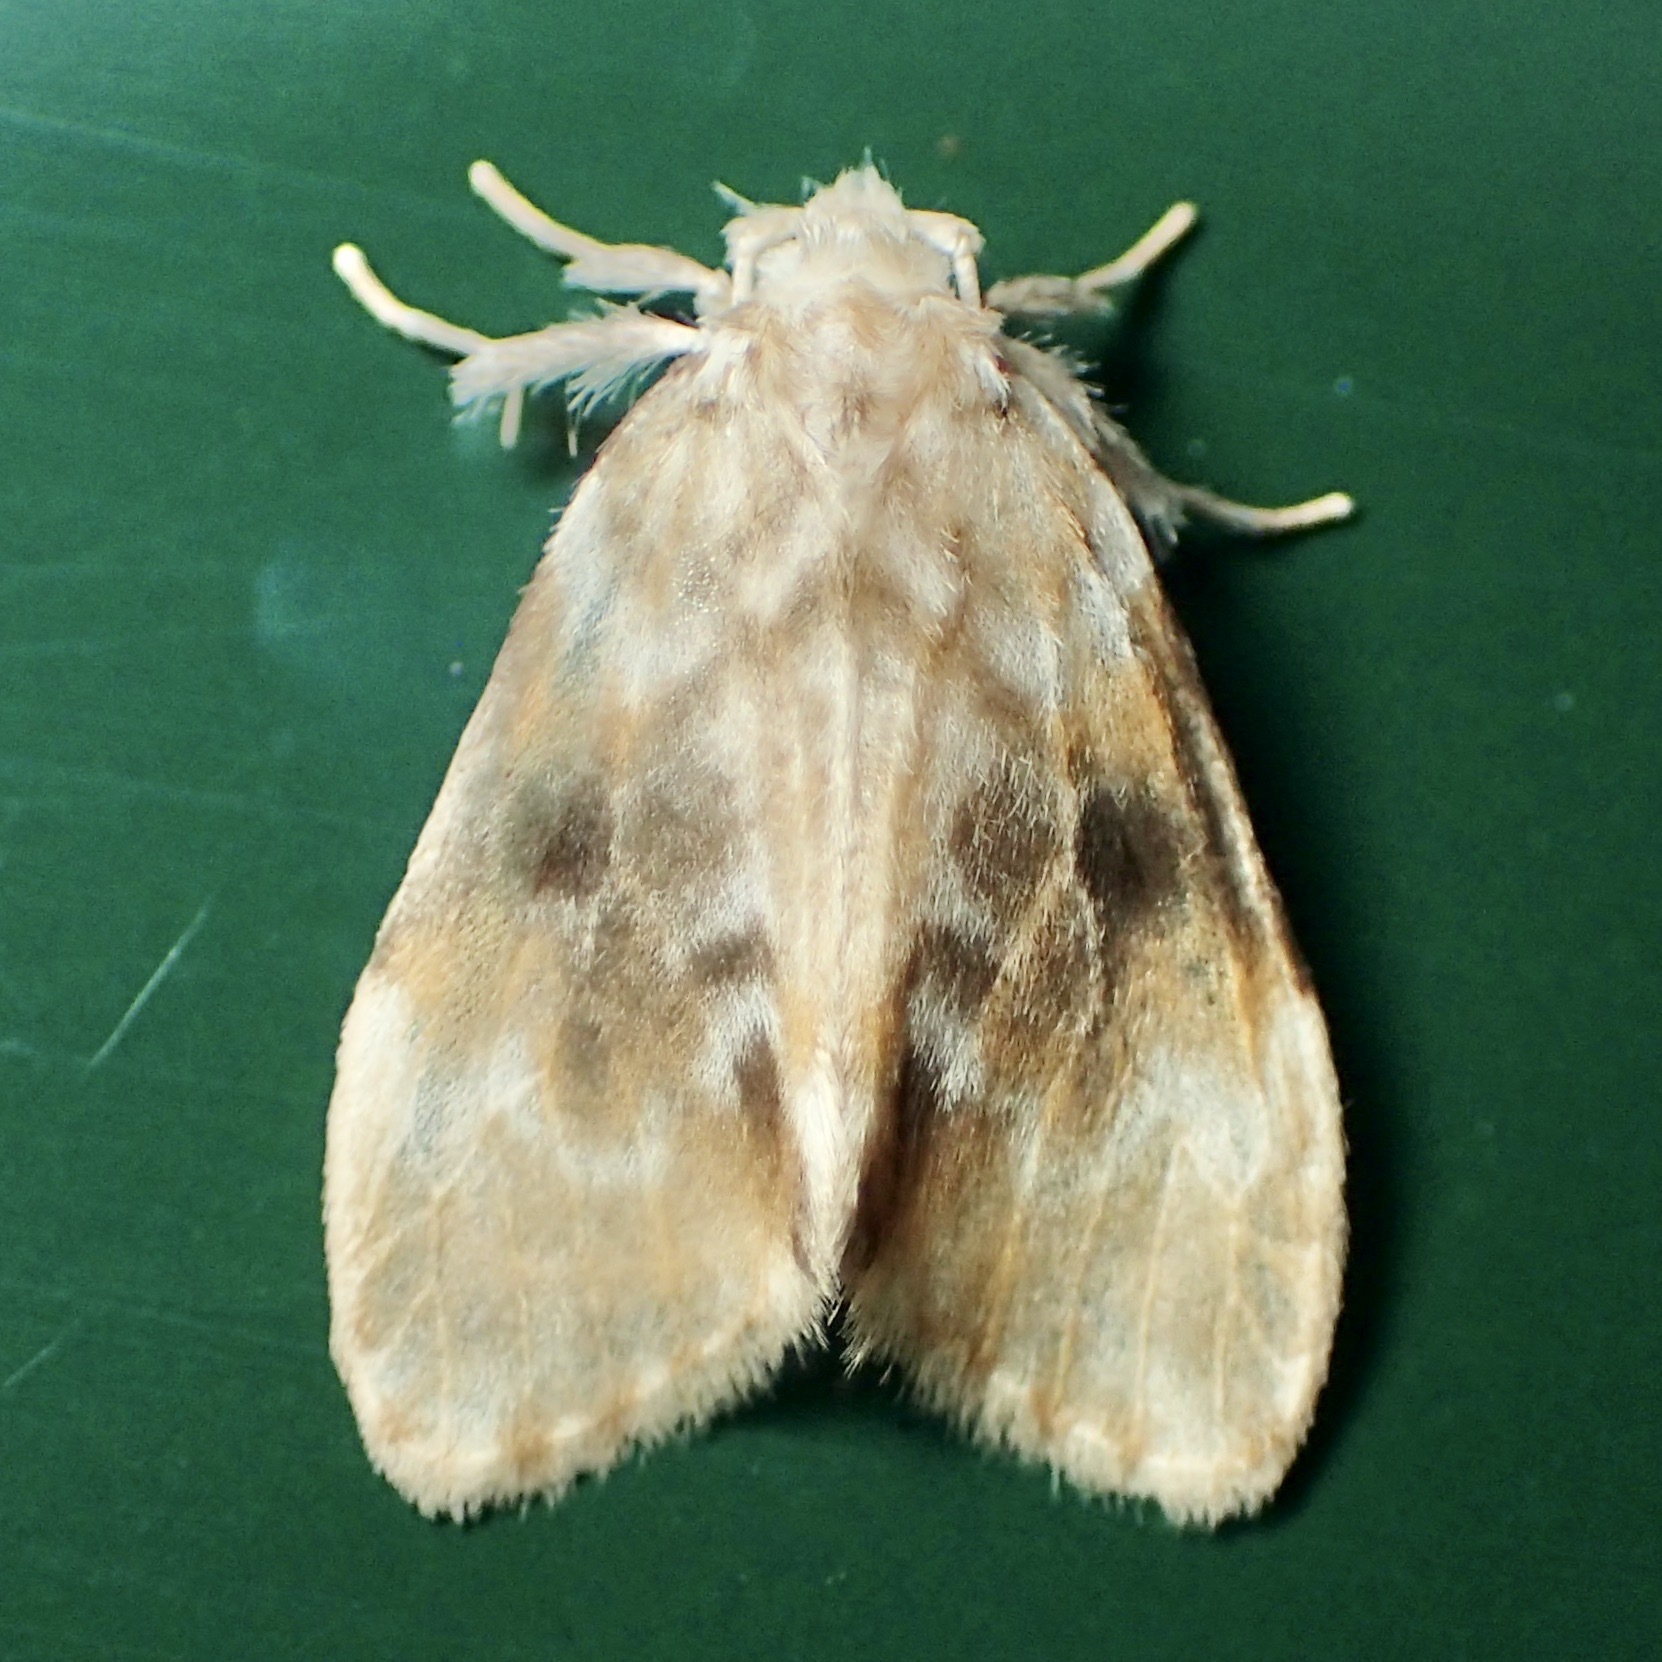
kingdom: Animalia
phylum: Arthropoda
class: Insecta
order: Lepidoptera
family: Erebidae
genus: Nudaria
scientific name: Nudaria mollis
